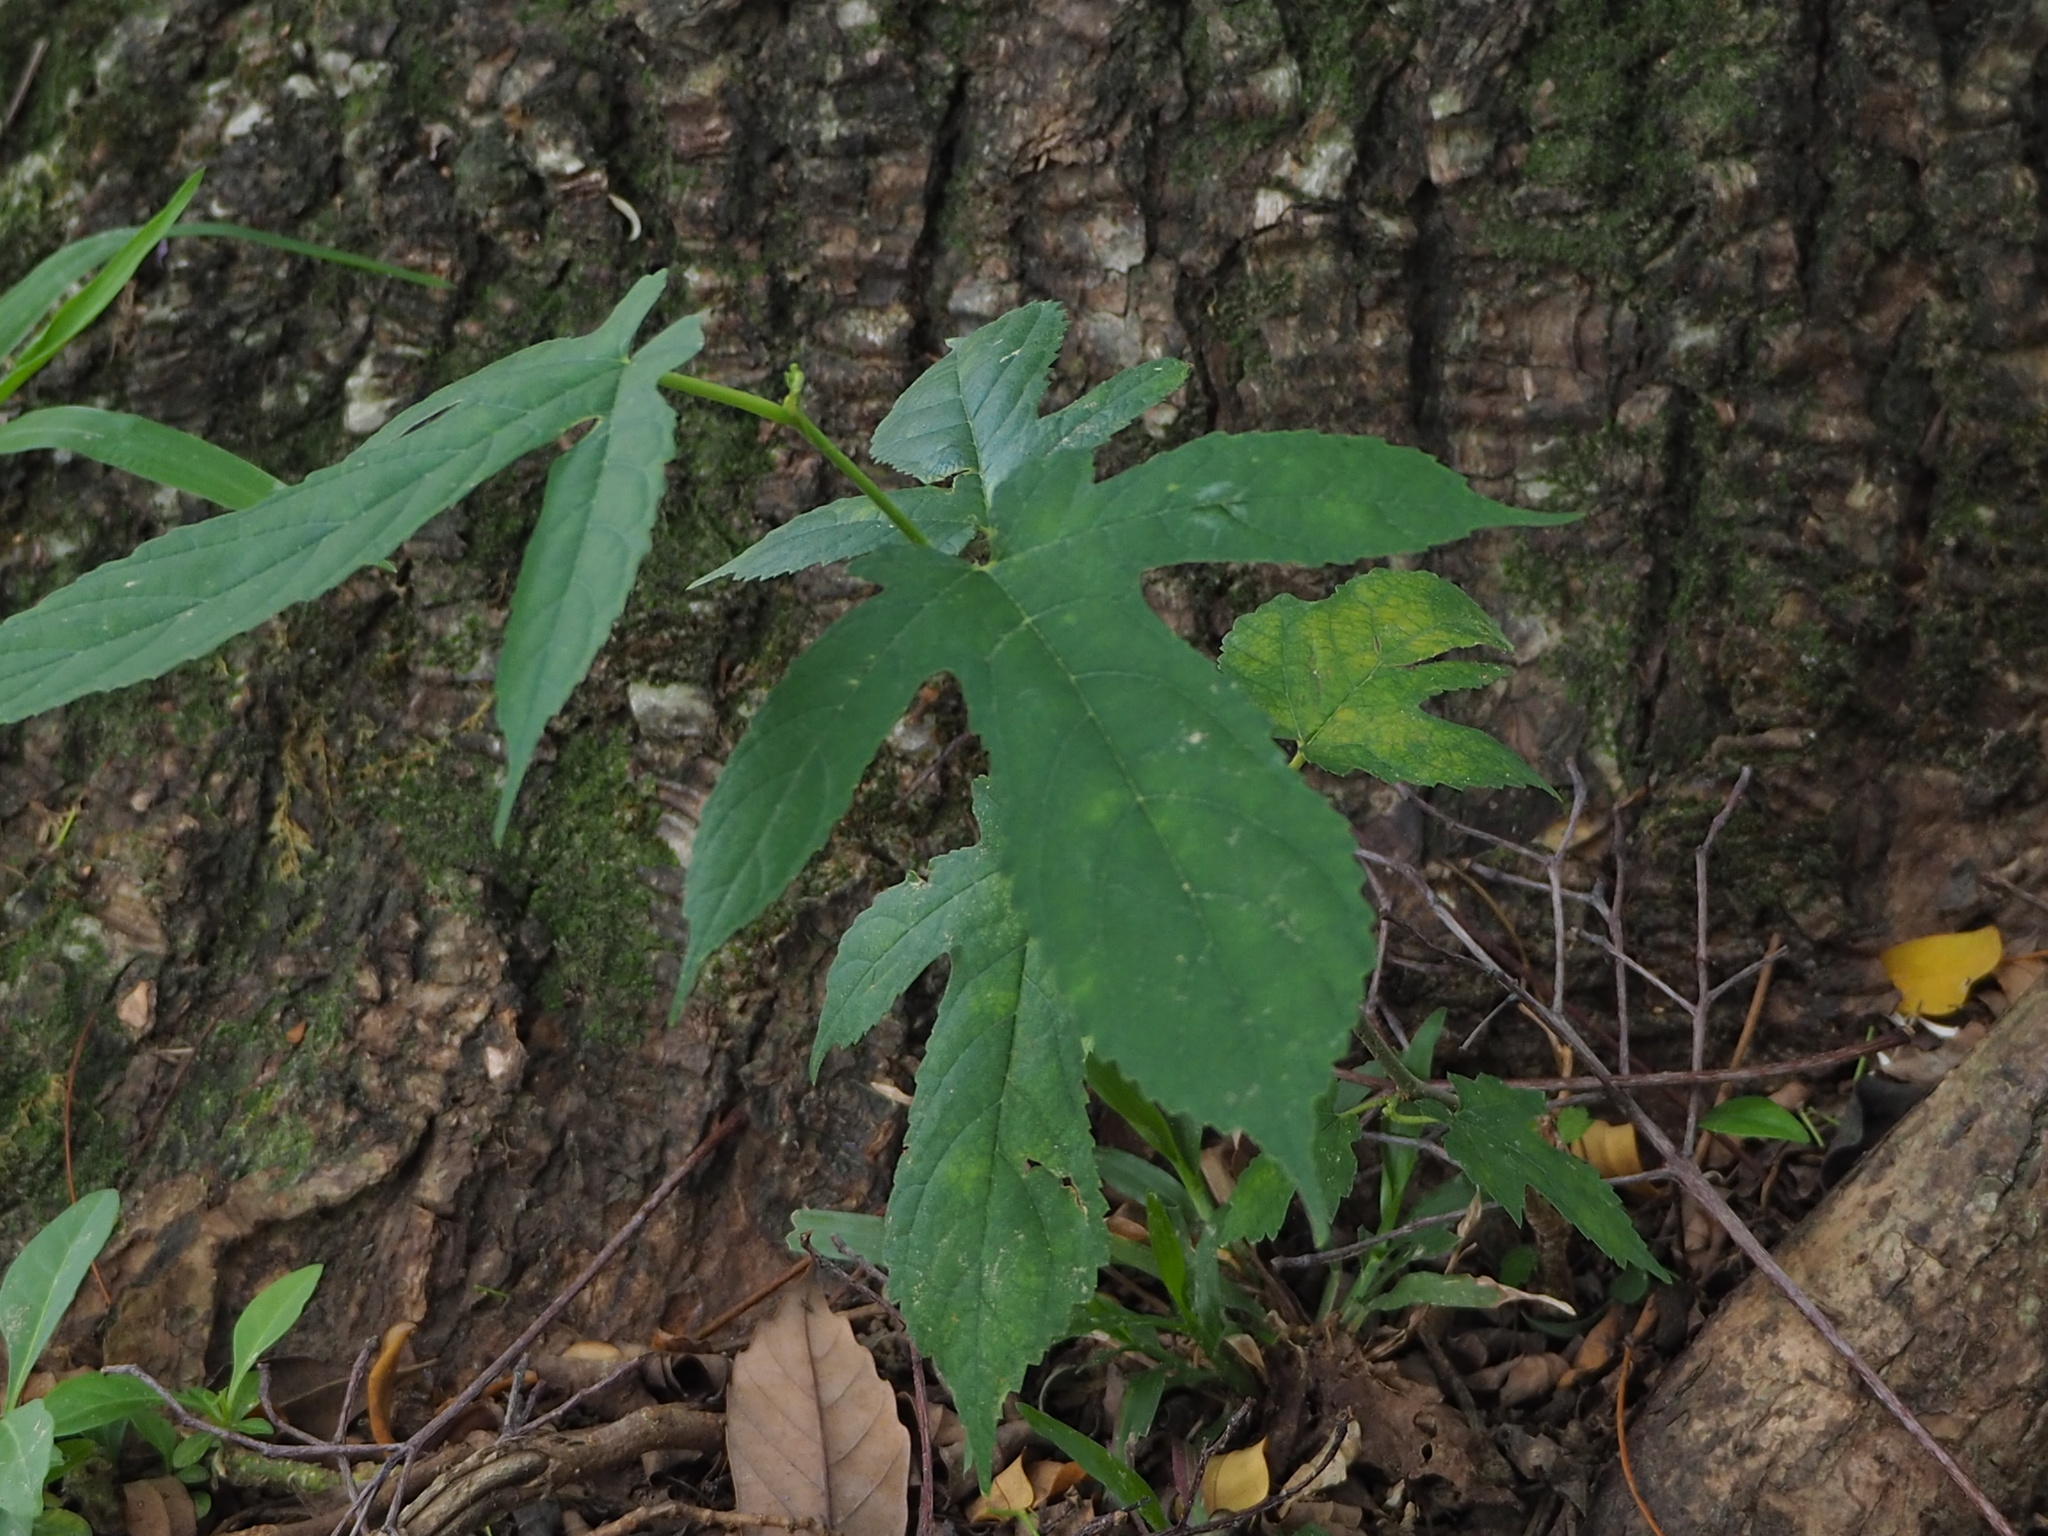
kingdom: Plantae
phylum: Tracheophyta
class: Magnoliopsida
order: Rosales
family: Moraceae
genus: Morus
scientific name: Morus indica
